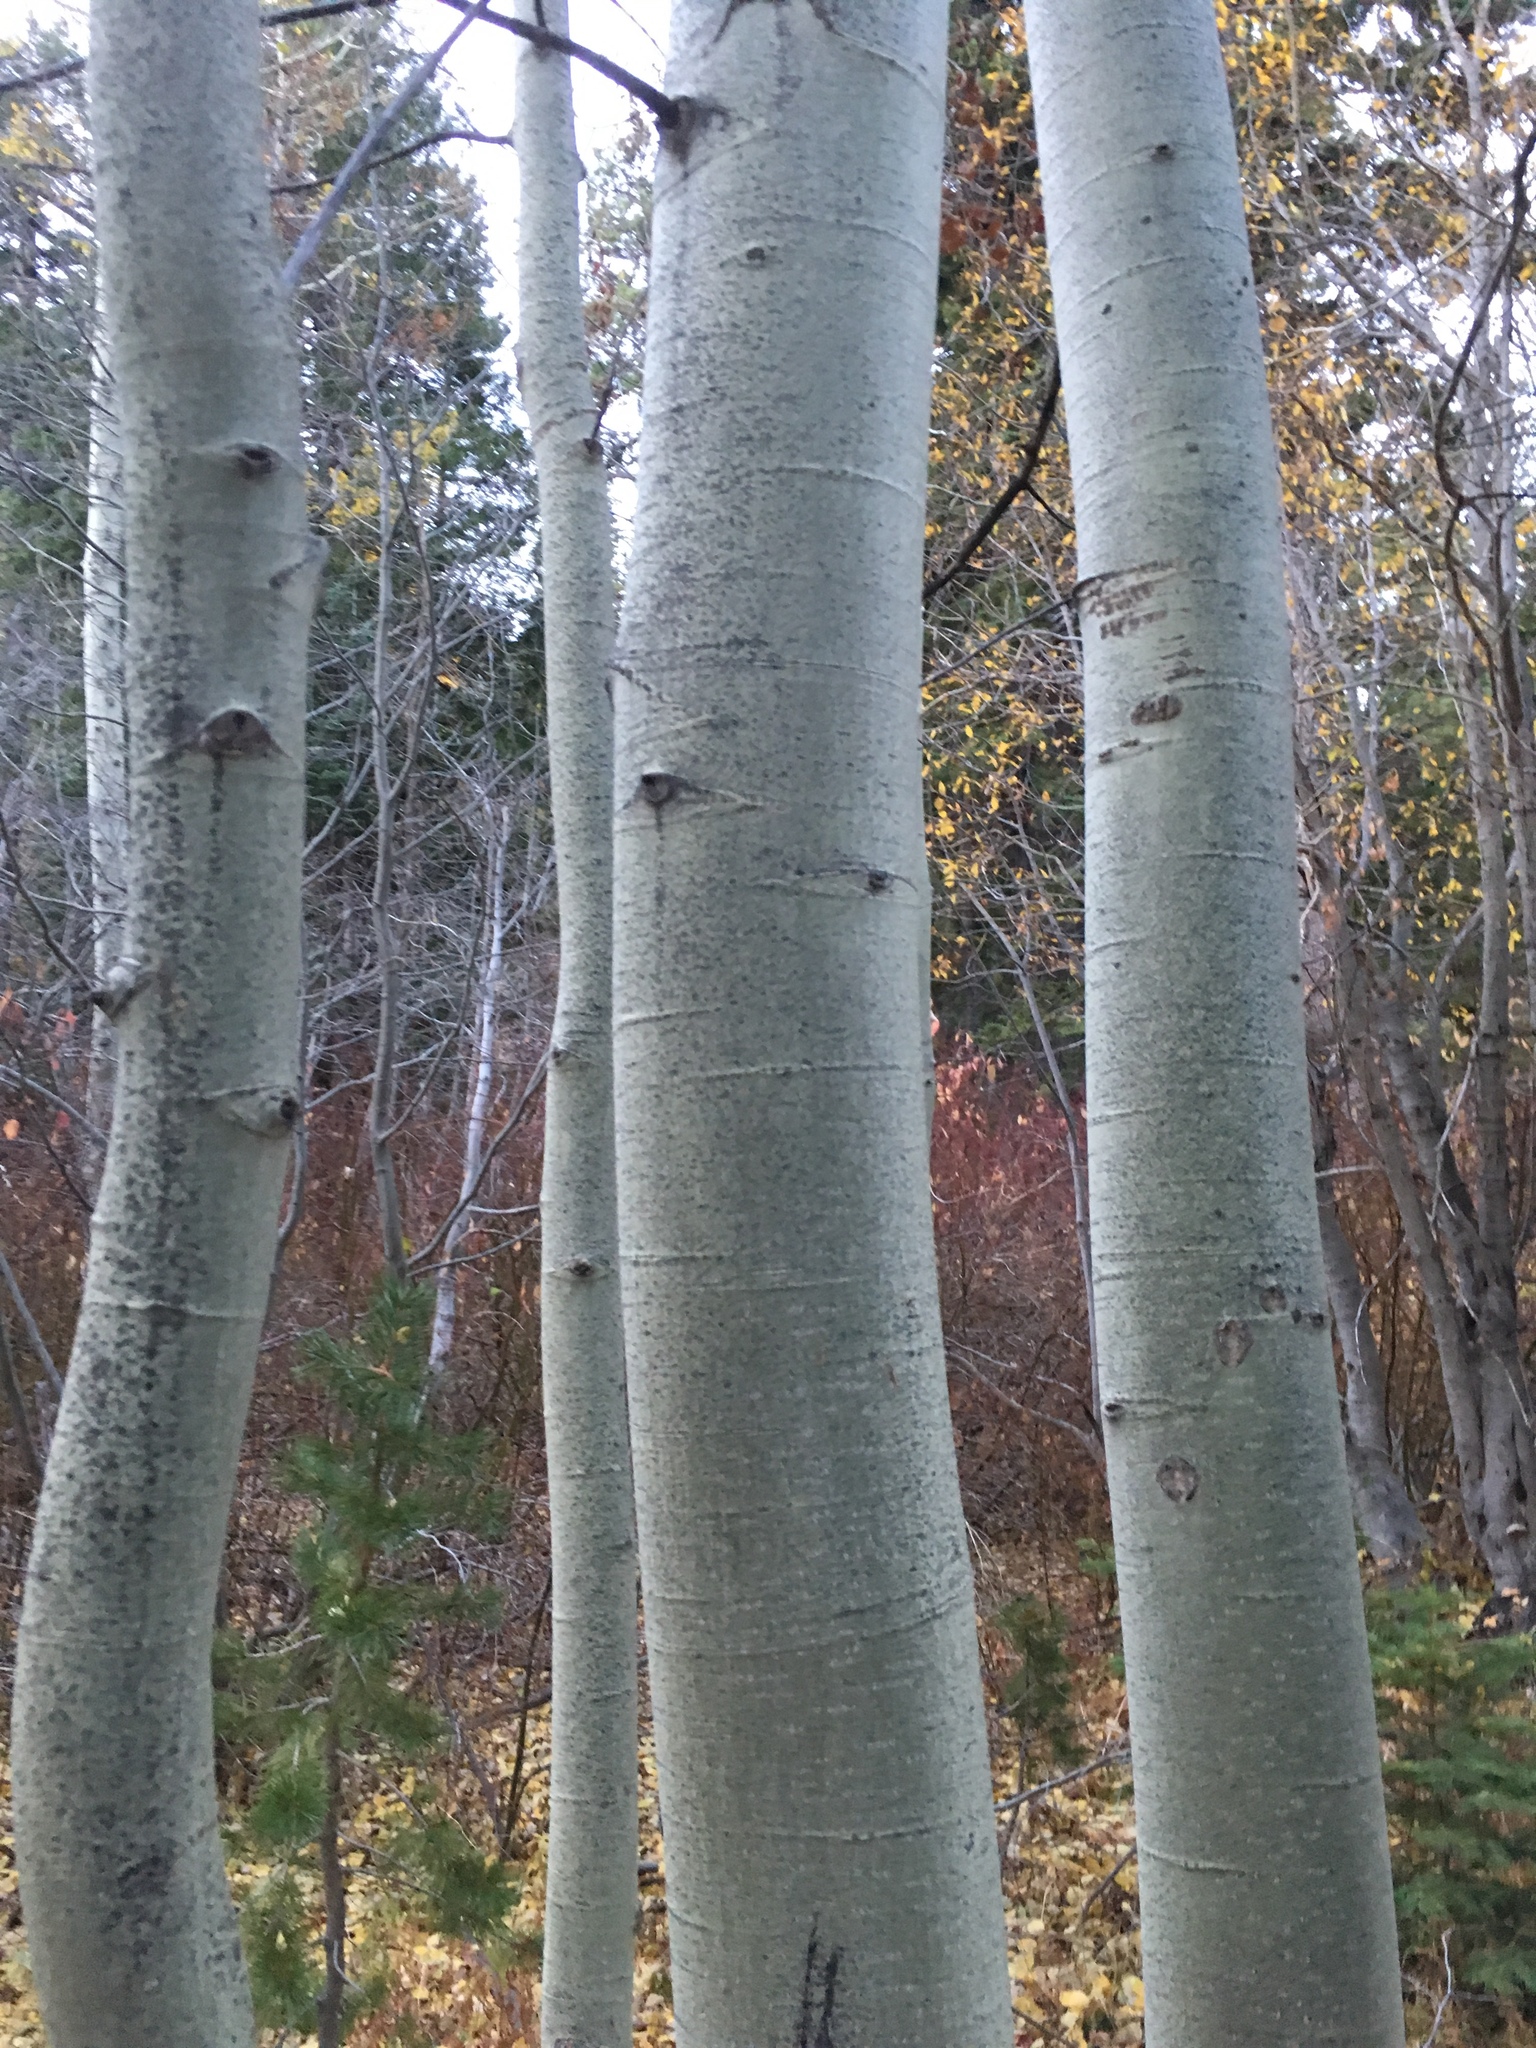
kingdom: Plantae
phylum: Tracheophyta
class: Magnoliopsida
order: Malpighiales
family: Salicaceae
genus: Populus
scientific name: Populus tremuloides
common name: Quaking aspen
